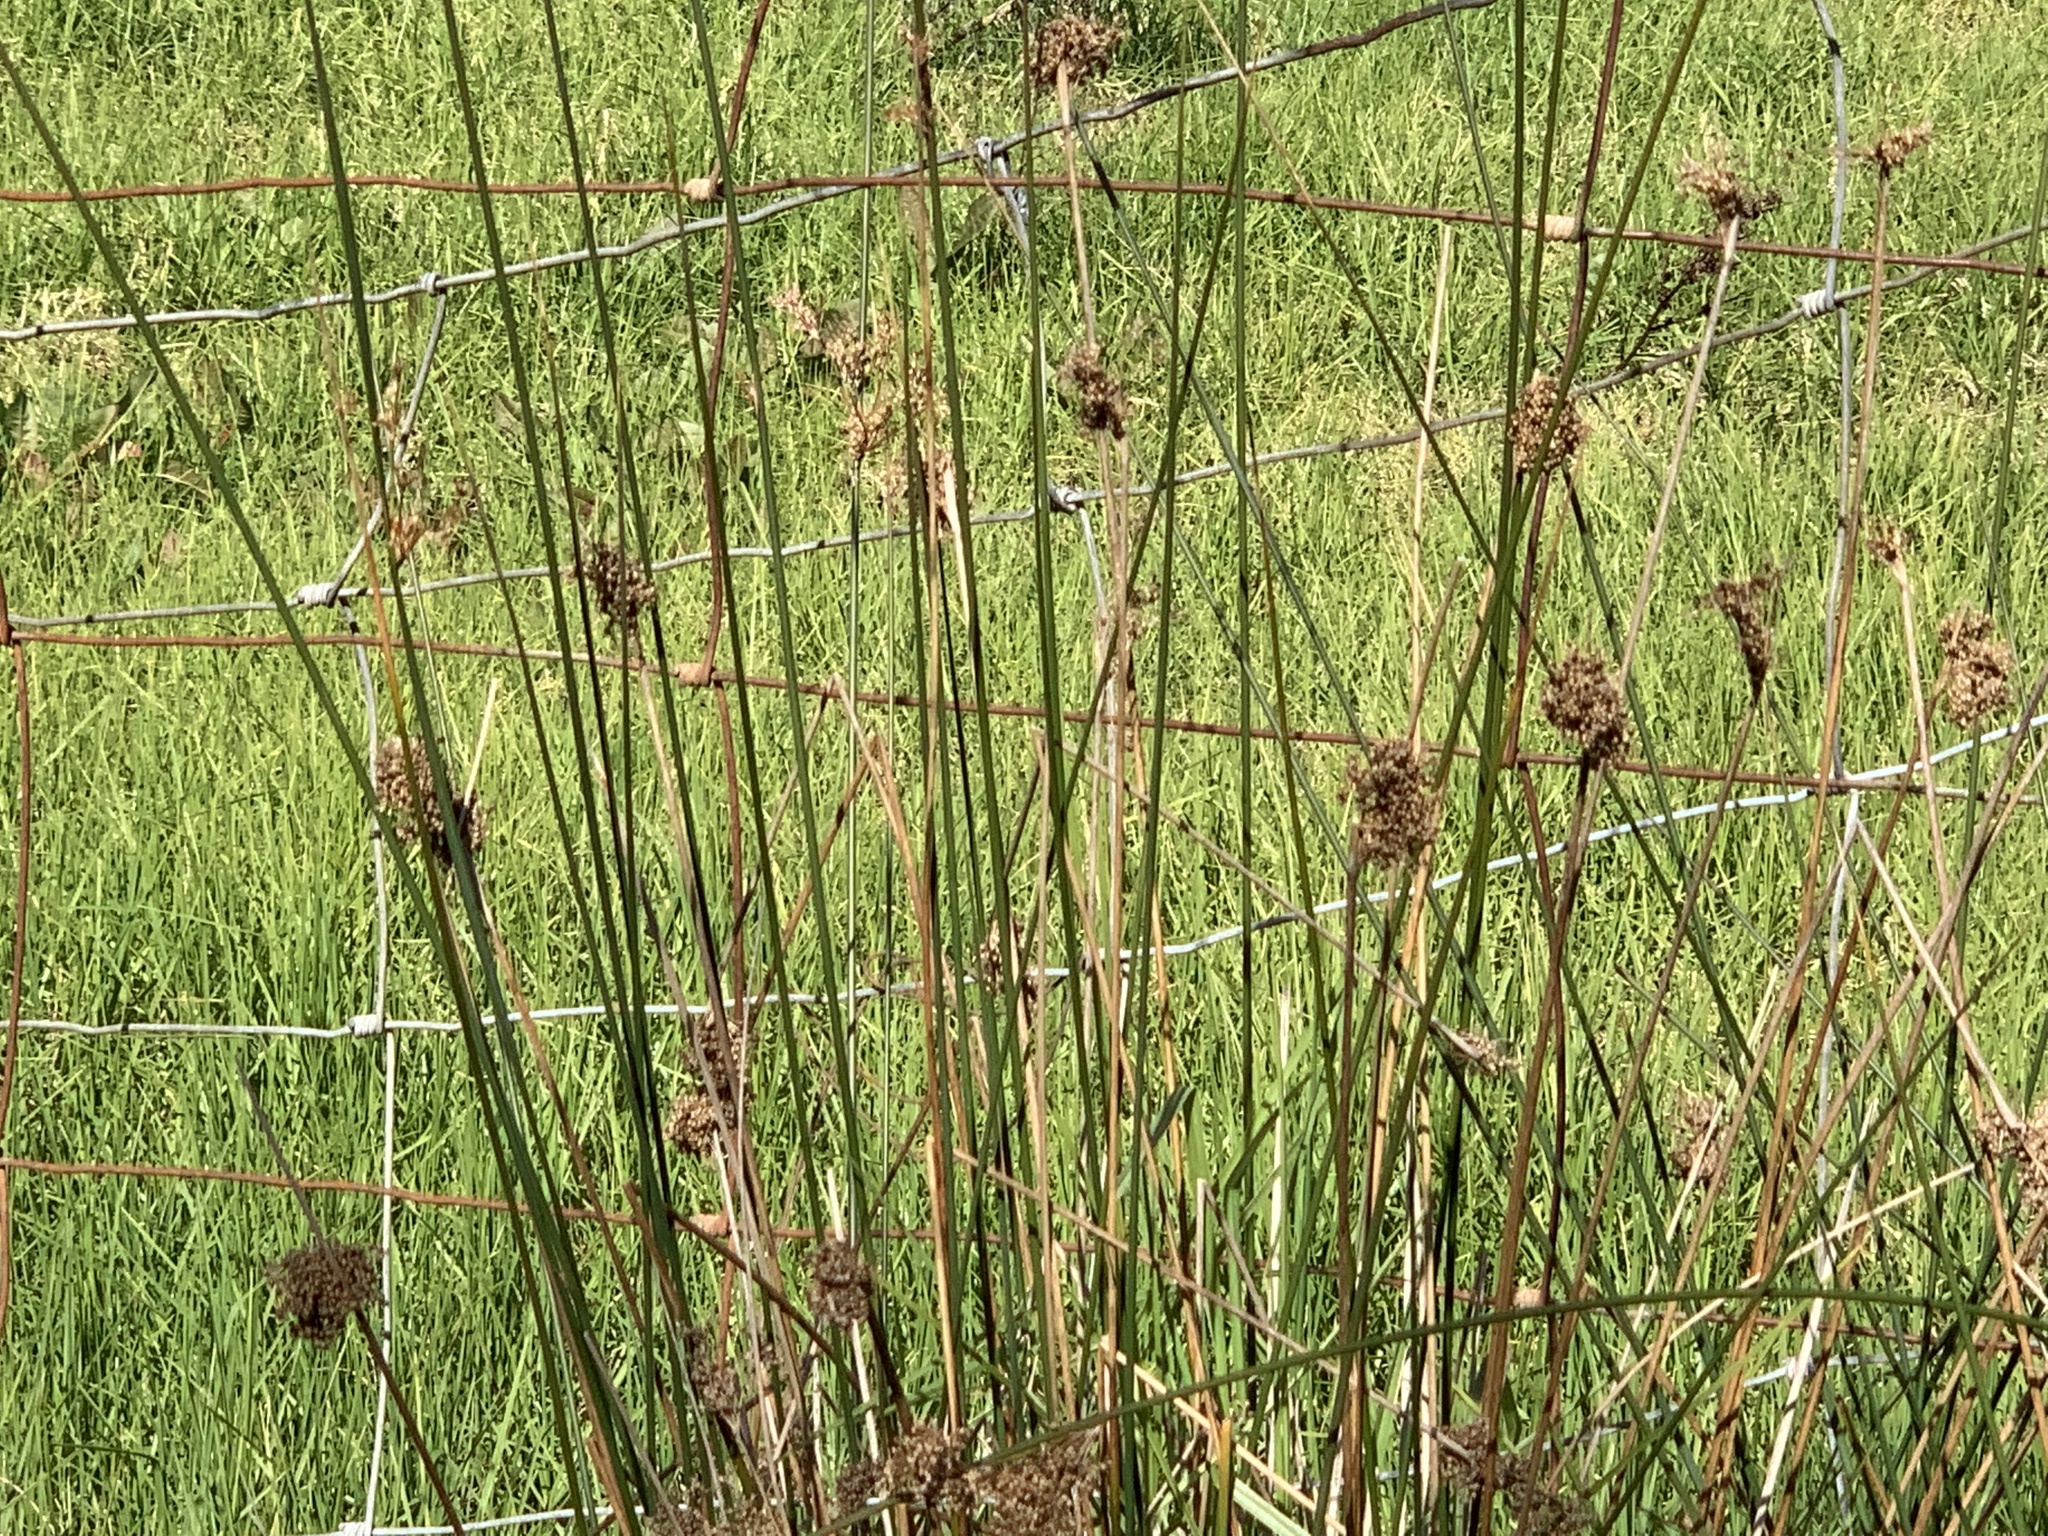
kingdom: Plantae
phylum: Tracheophyta
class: Liliopsida
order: Poales
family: Juncaceae
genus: Juncus
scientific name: Juncus effusus
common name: Soft rush
